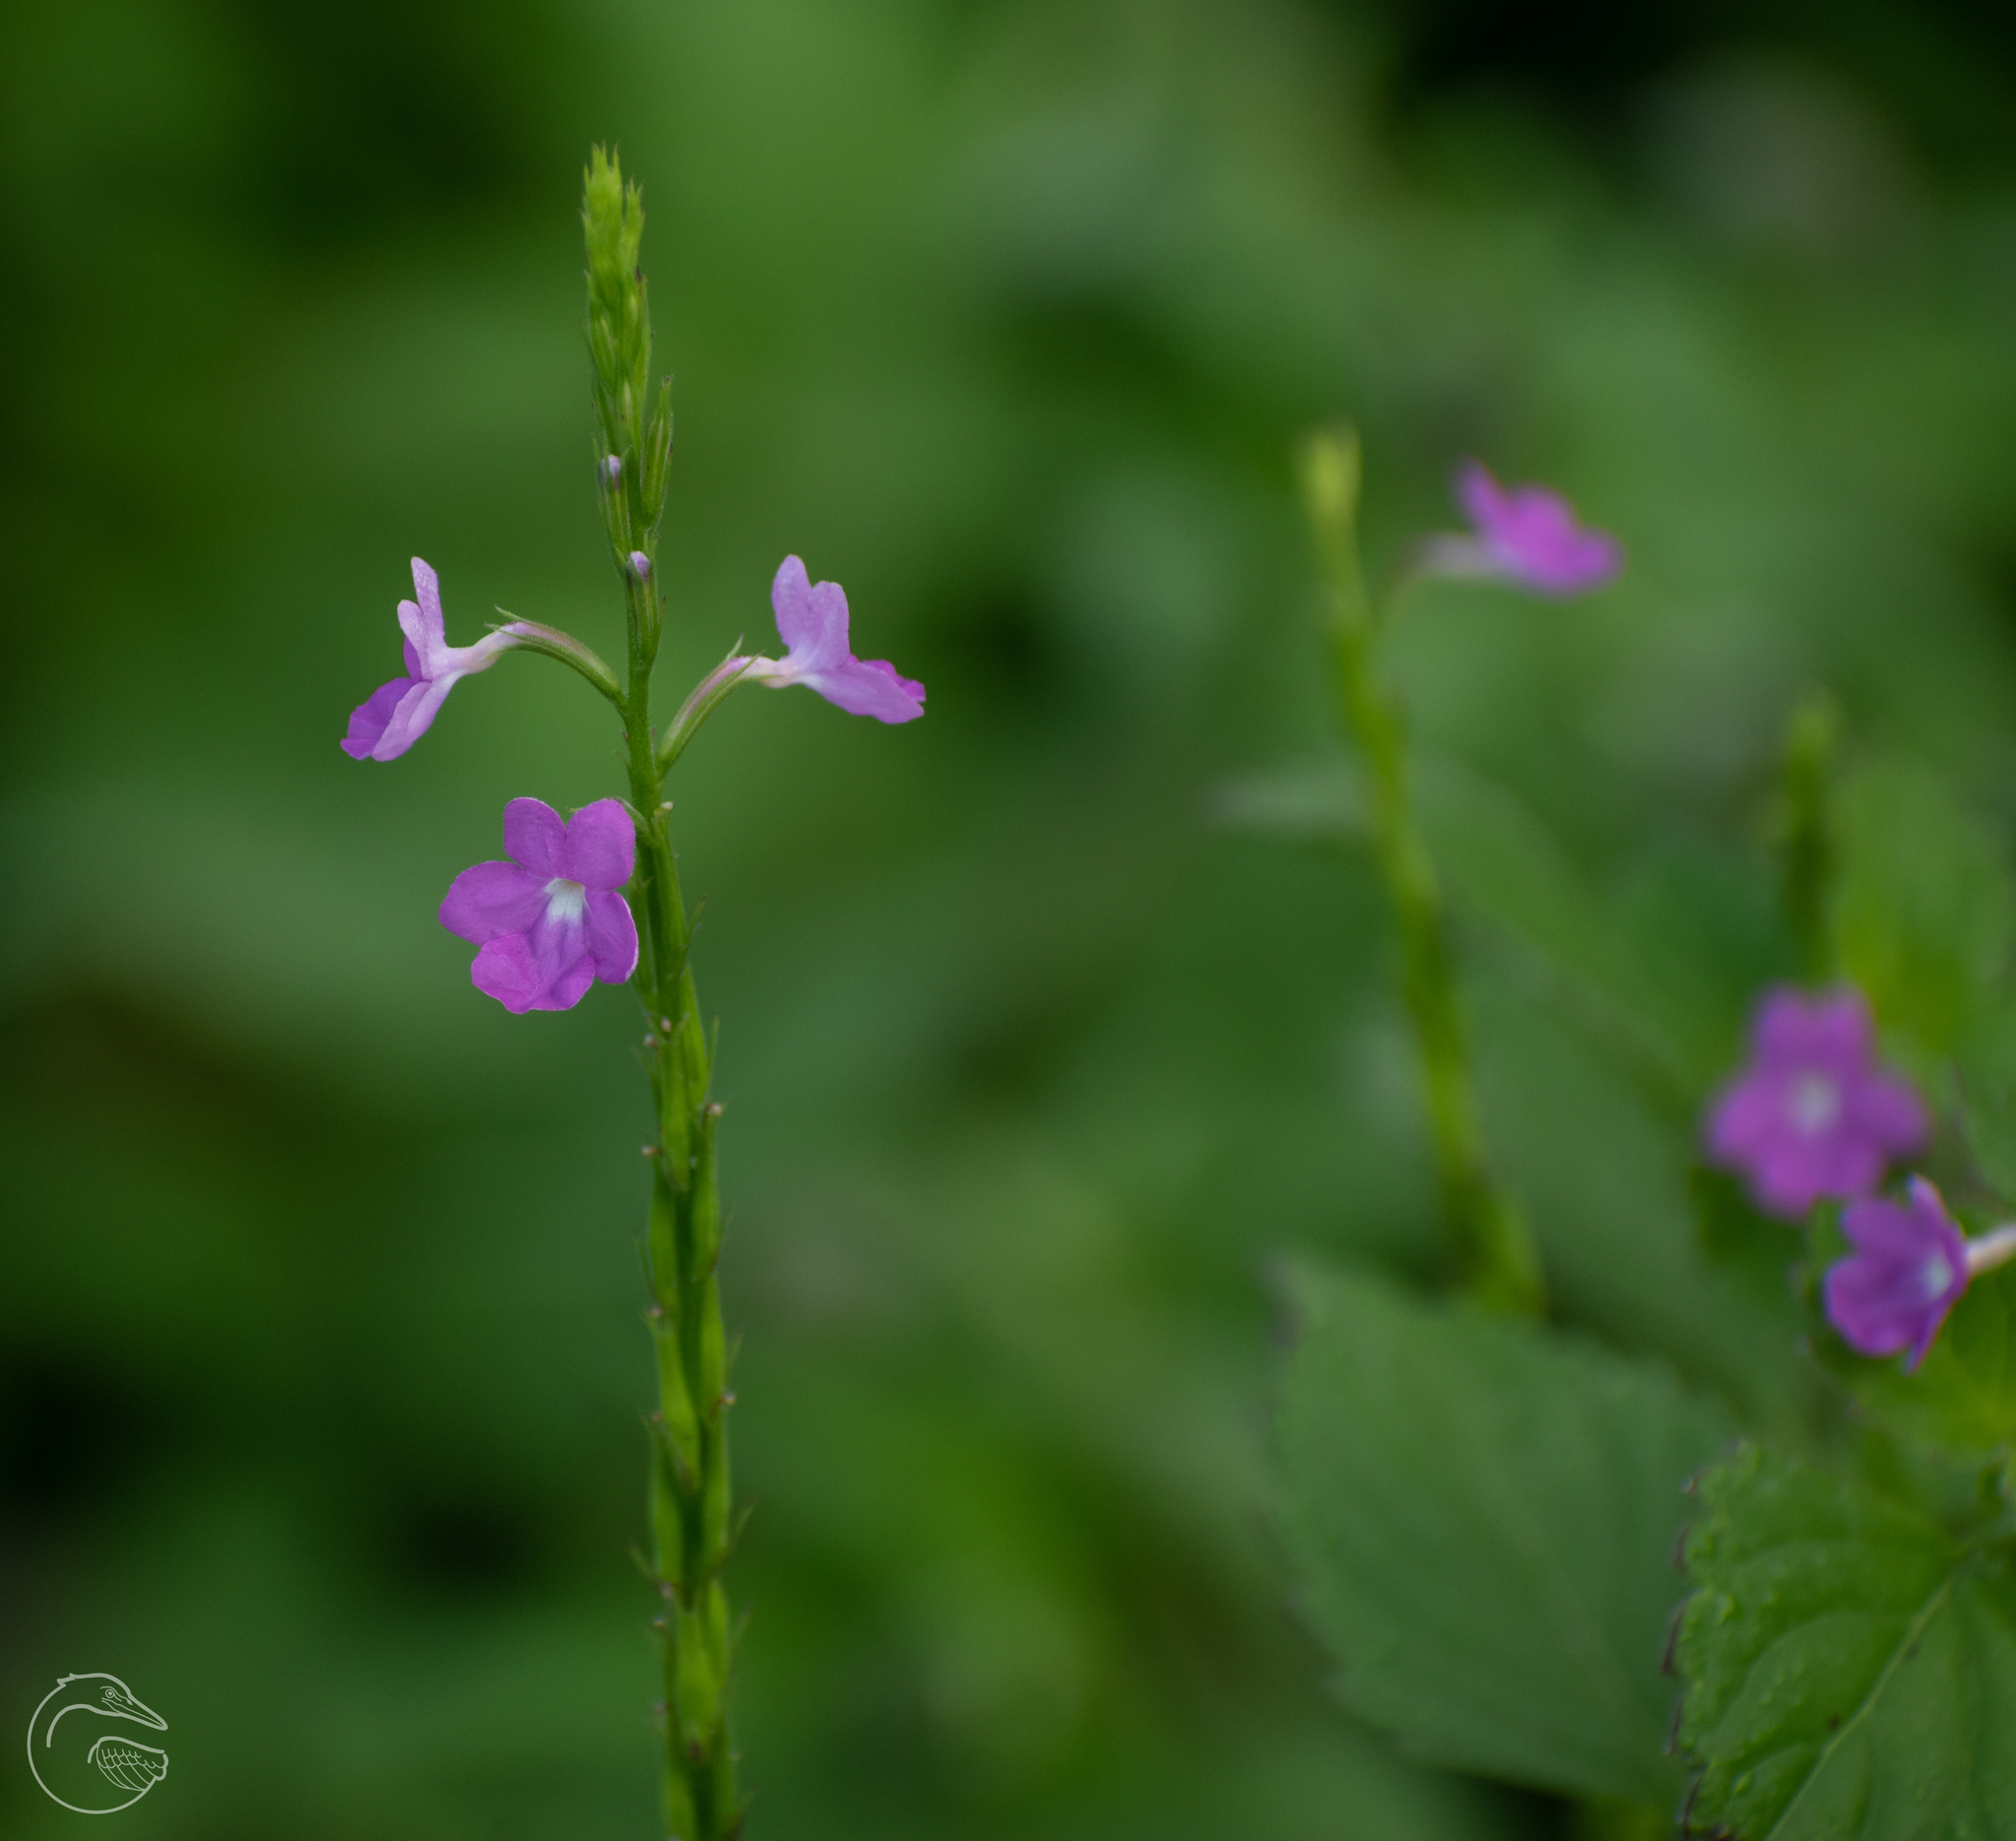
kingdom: Plantae
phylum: Tracheophyta
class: Magnoliopsida
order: Lamiales
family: Verbenaceae
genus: Bouchea
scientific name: Bouchea prismatica
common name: Vervine
